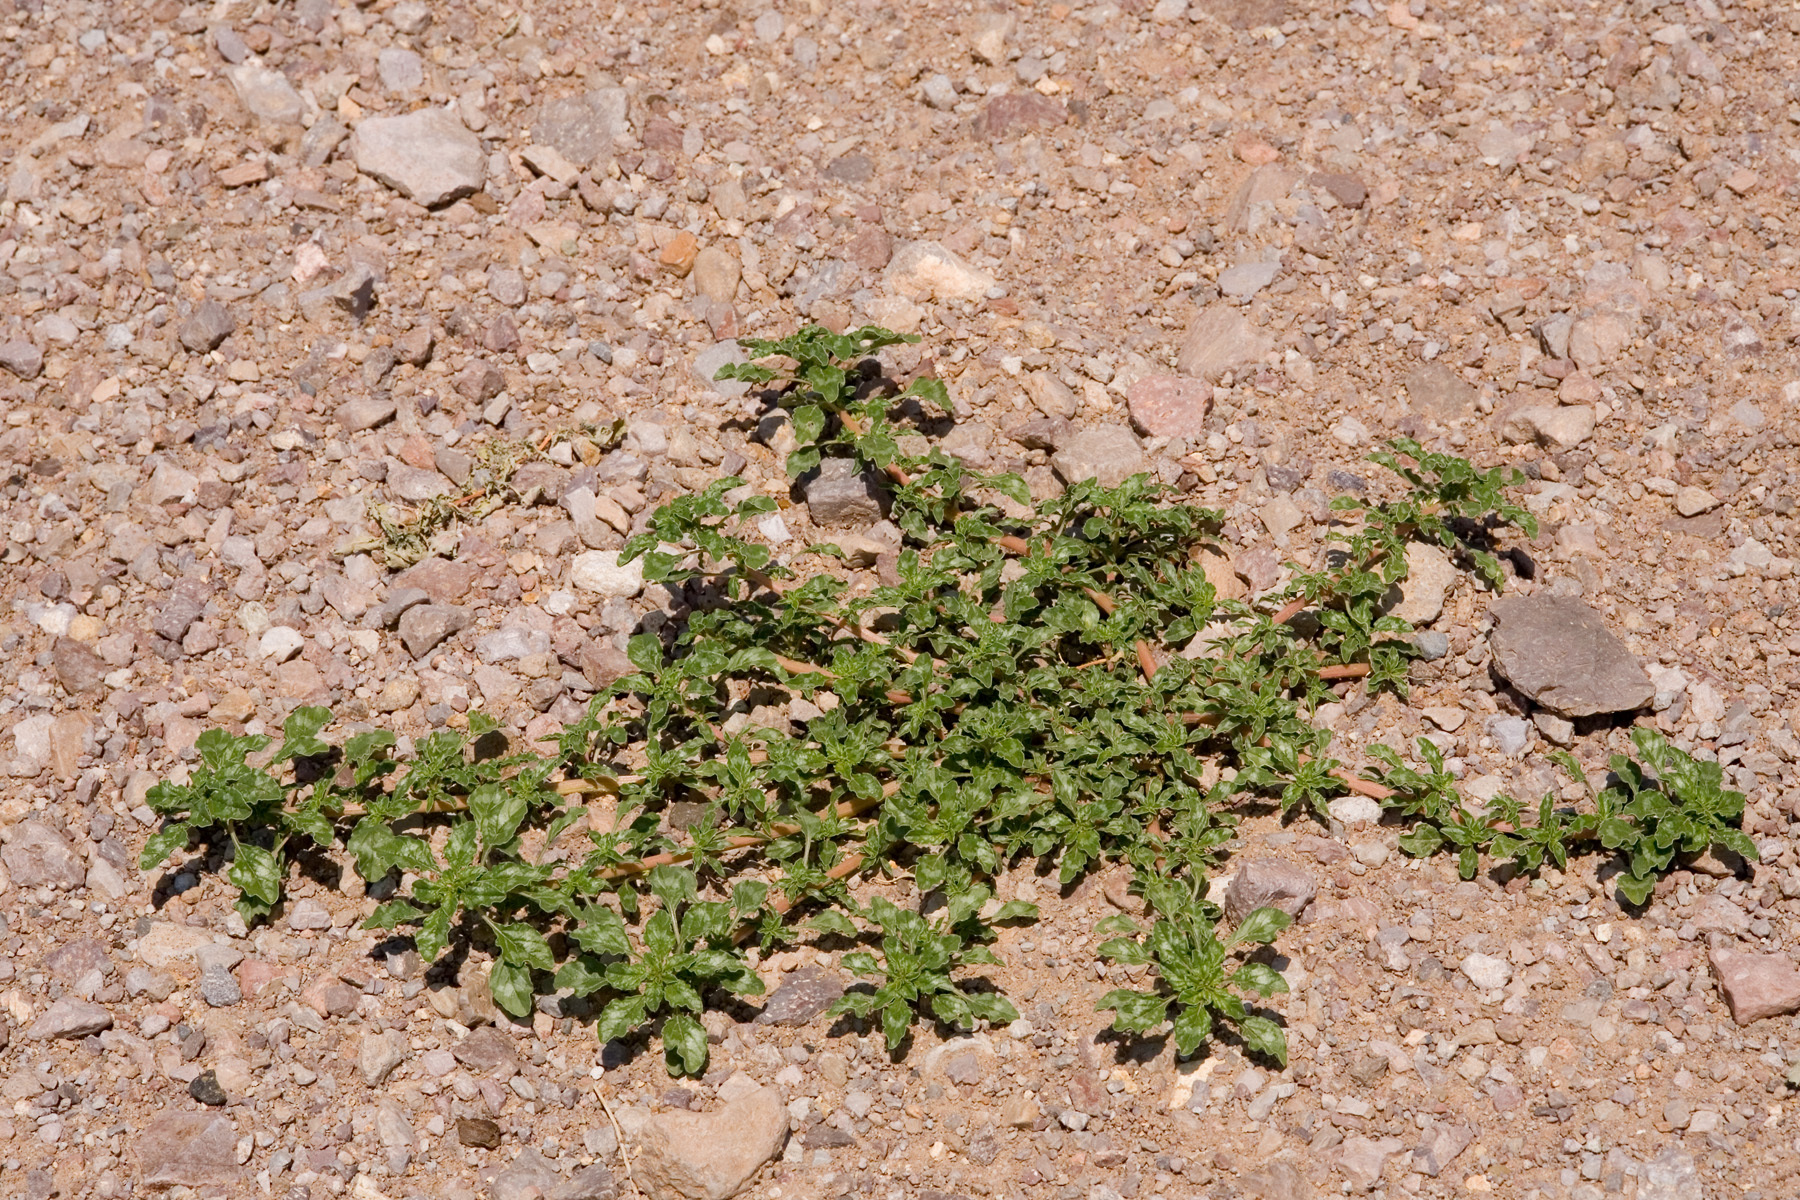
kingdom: Plantae
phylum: Tracheophyta
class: Magnoliopsida
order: Caryophyllales
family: Amaranthaceae
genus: Amaranthus
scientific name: Amaranthus blitoides
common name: Prostrate pigweed
